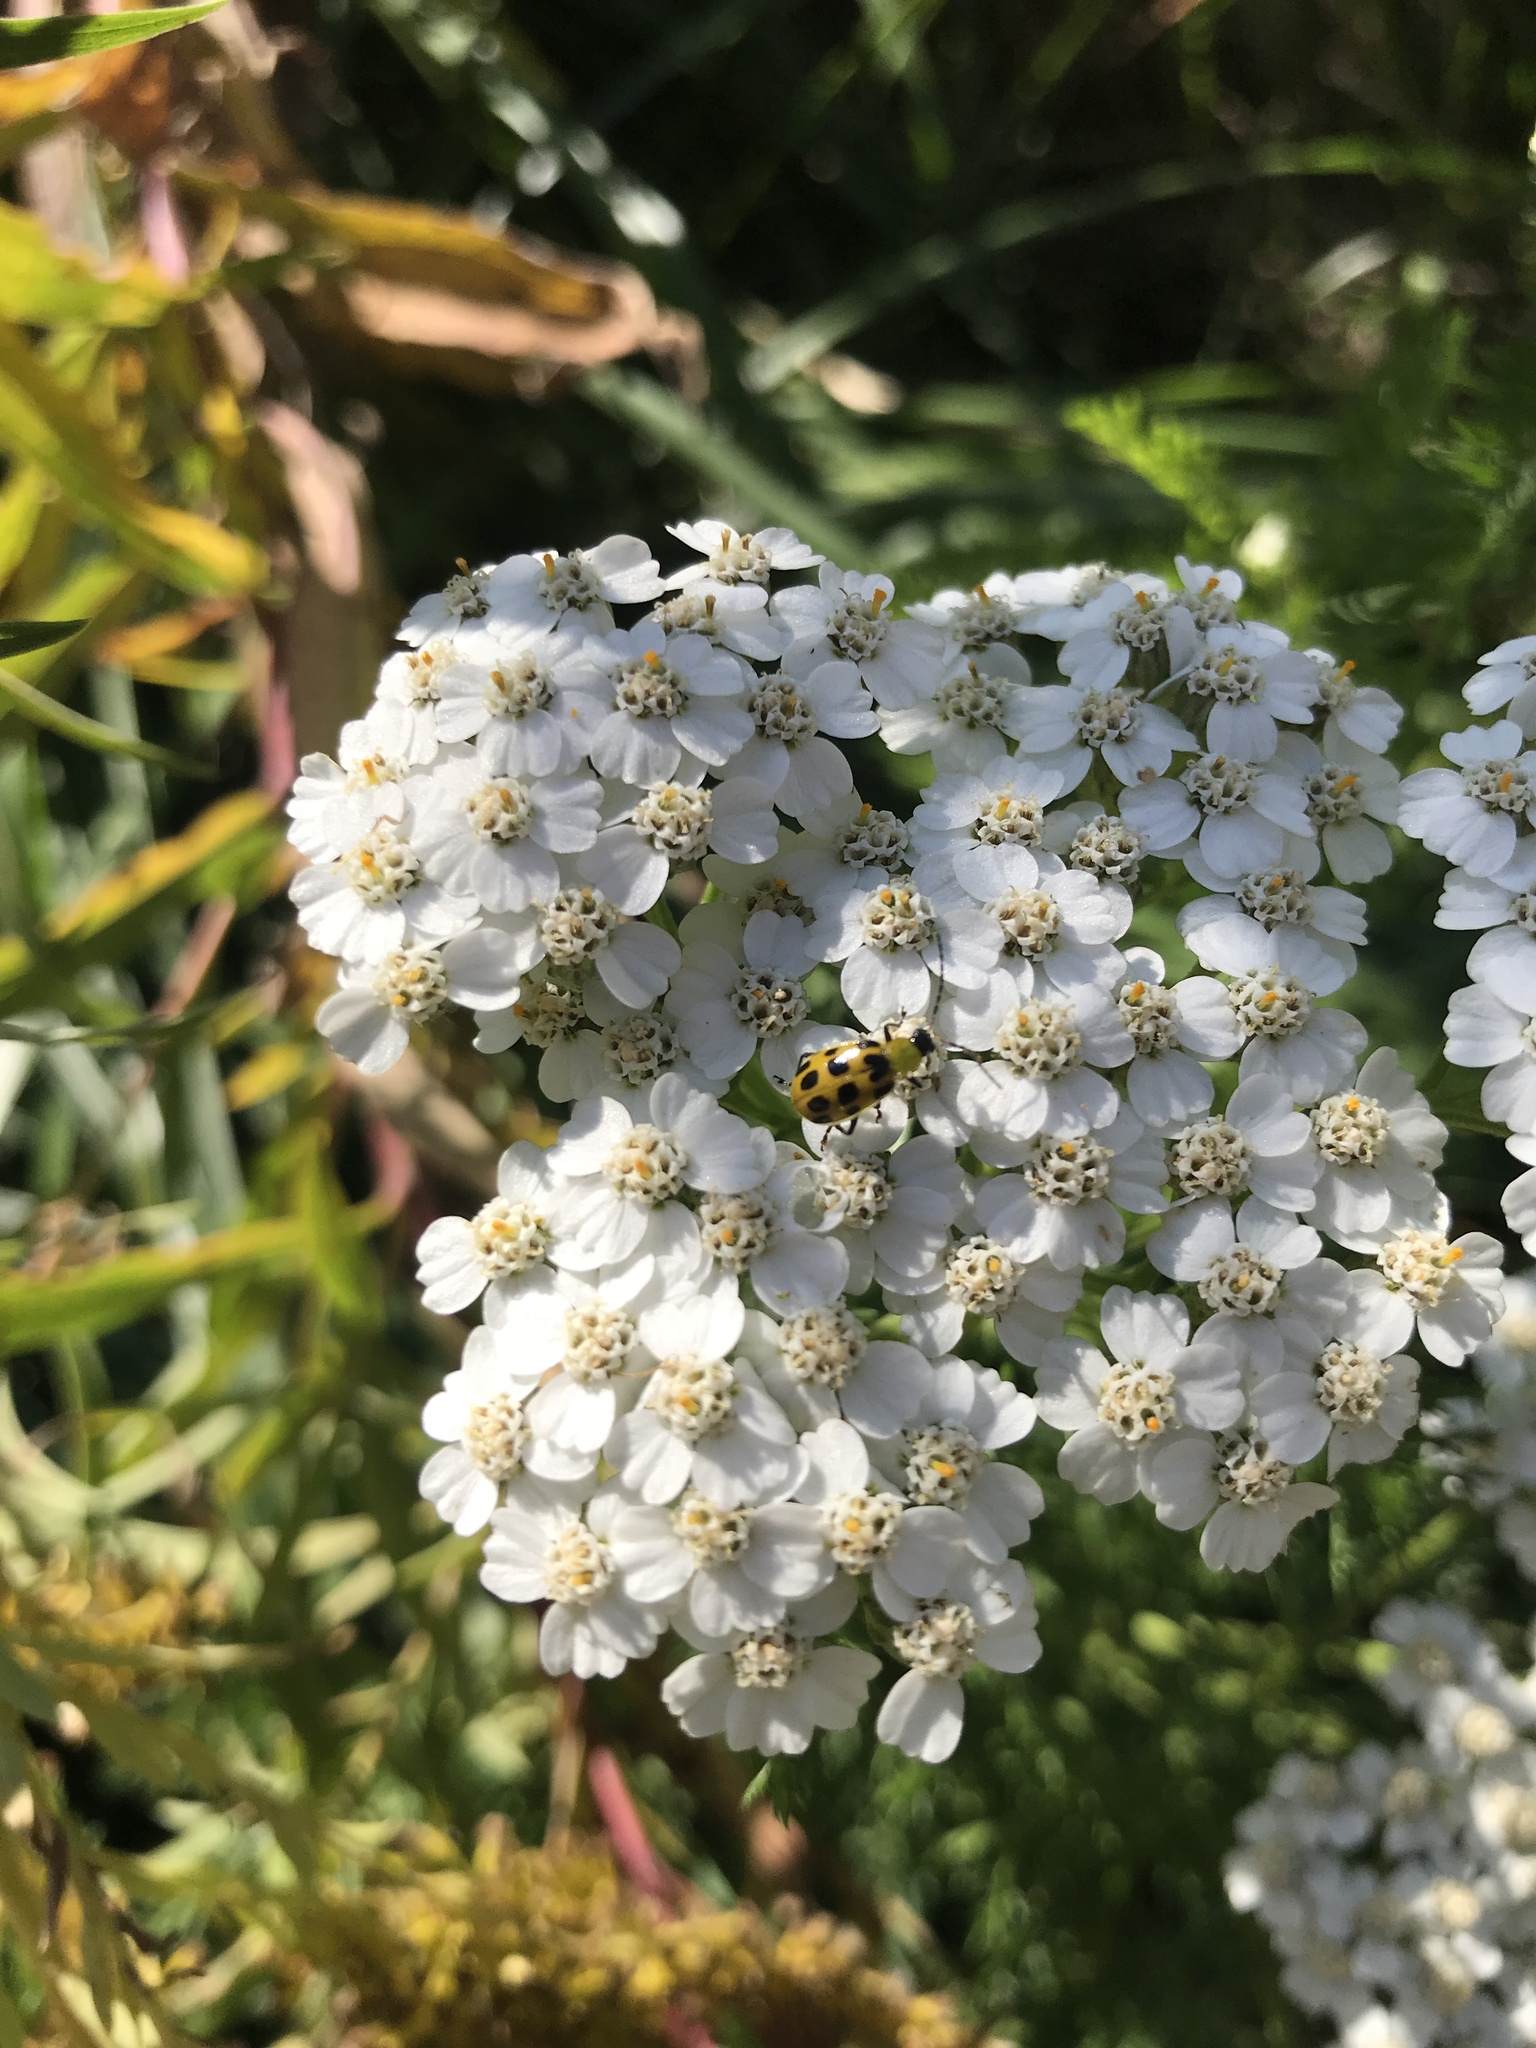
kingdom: Animalia
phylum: Arthropoda
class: Insecta
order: Coleoptera
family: Chrysomelidae
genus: Diabrotica
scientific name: Diabrotica undecimpunctata
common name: Spotted cucumber beetle
